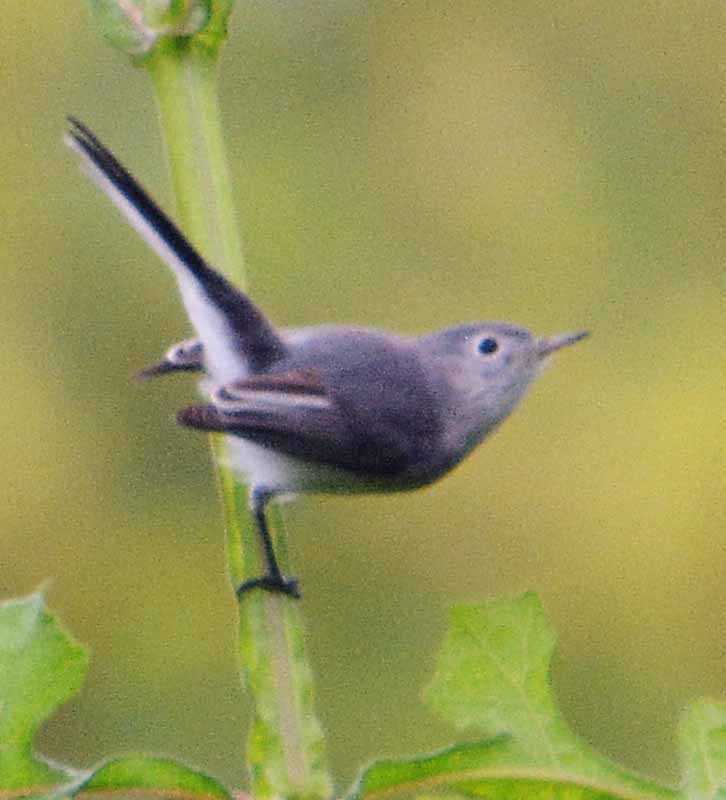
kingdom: Animalia
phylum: Chordata
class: Aves
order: Passeriformes
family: Polioptilidae
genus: Polioptila
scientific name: Polioptila caerulea
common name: Blue-gray gnatcatcher
